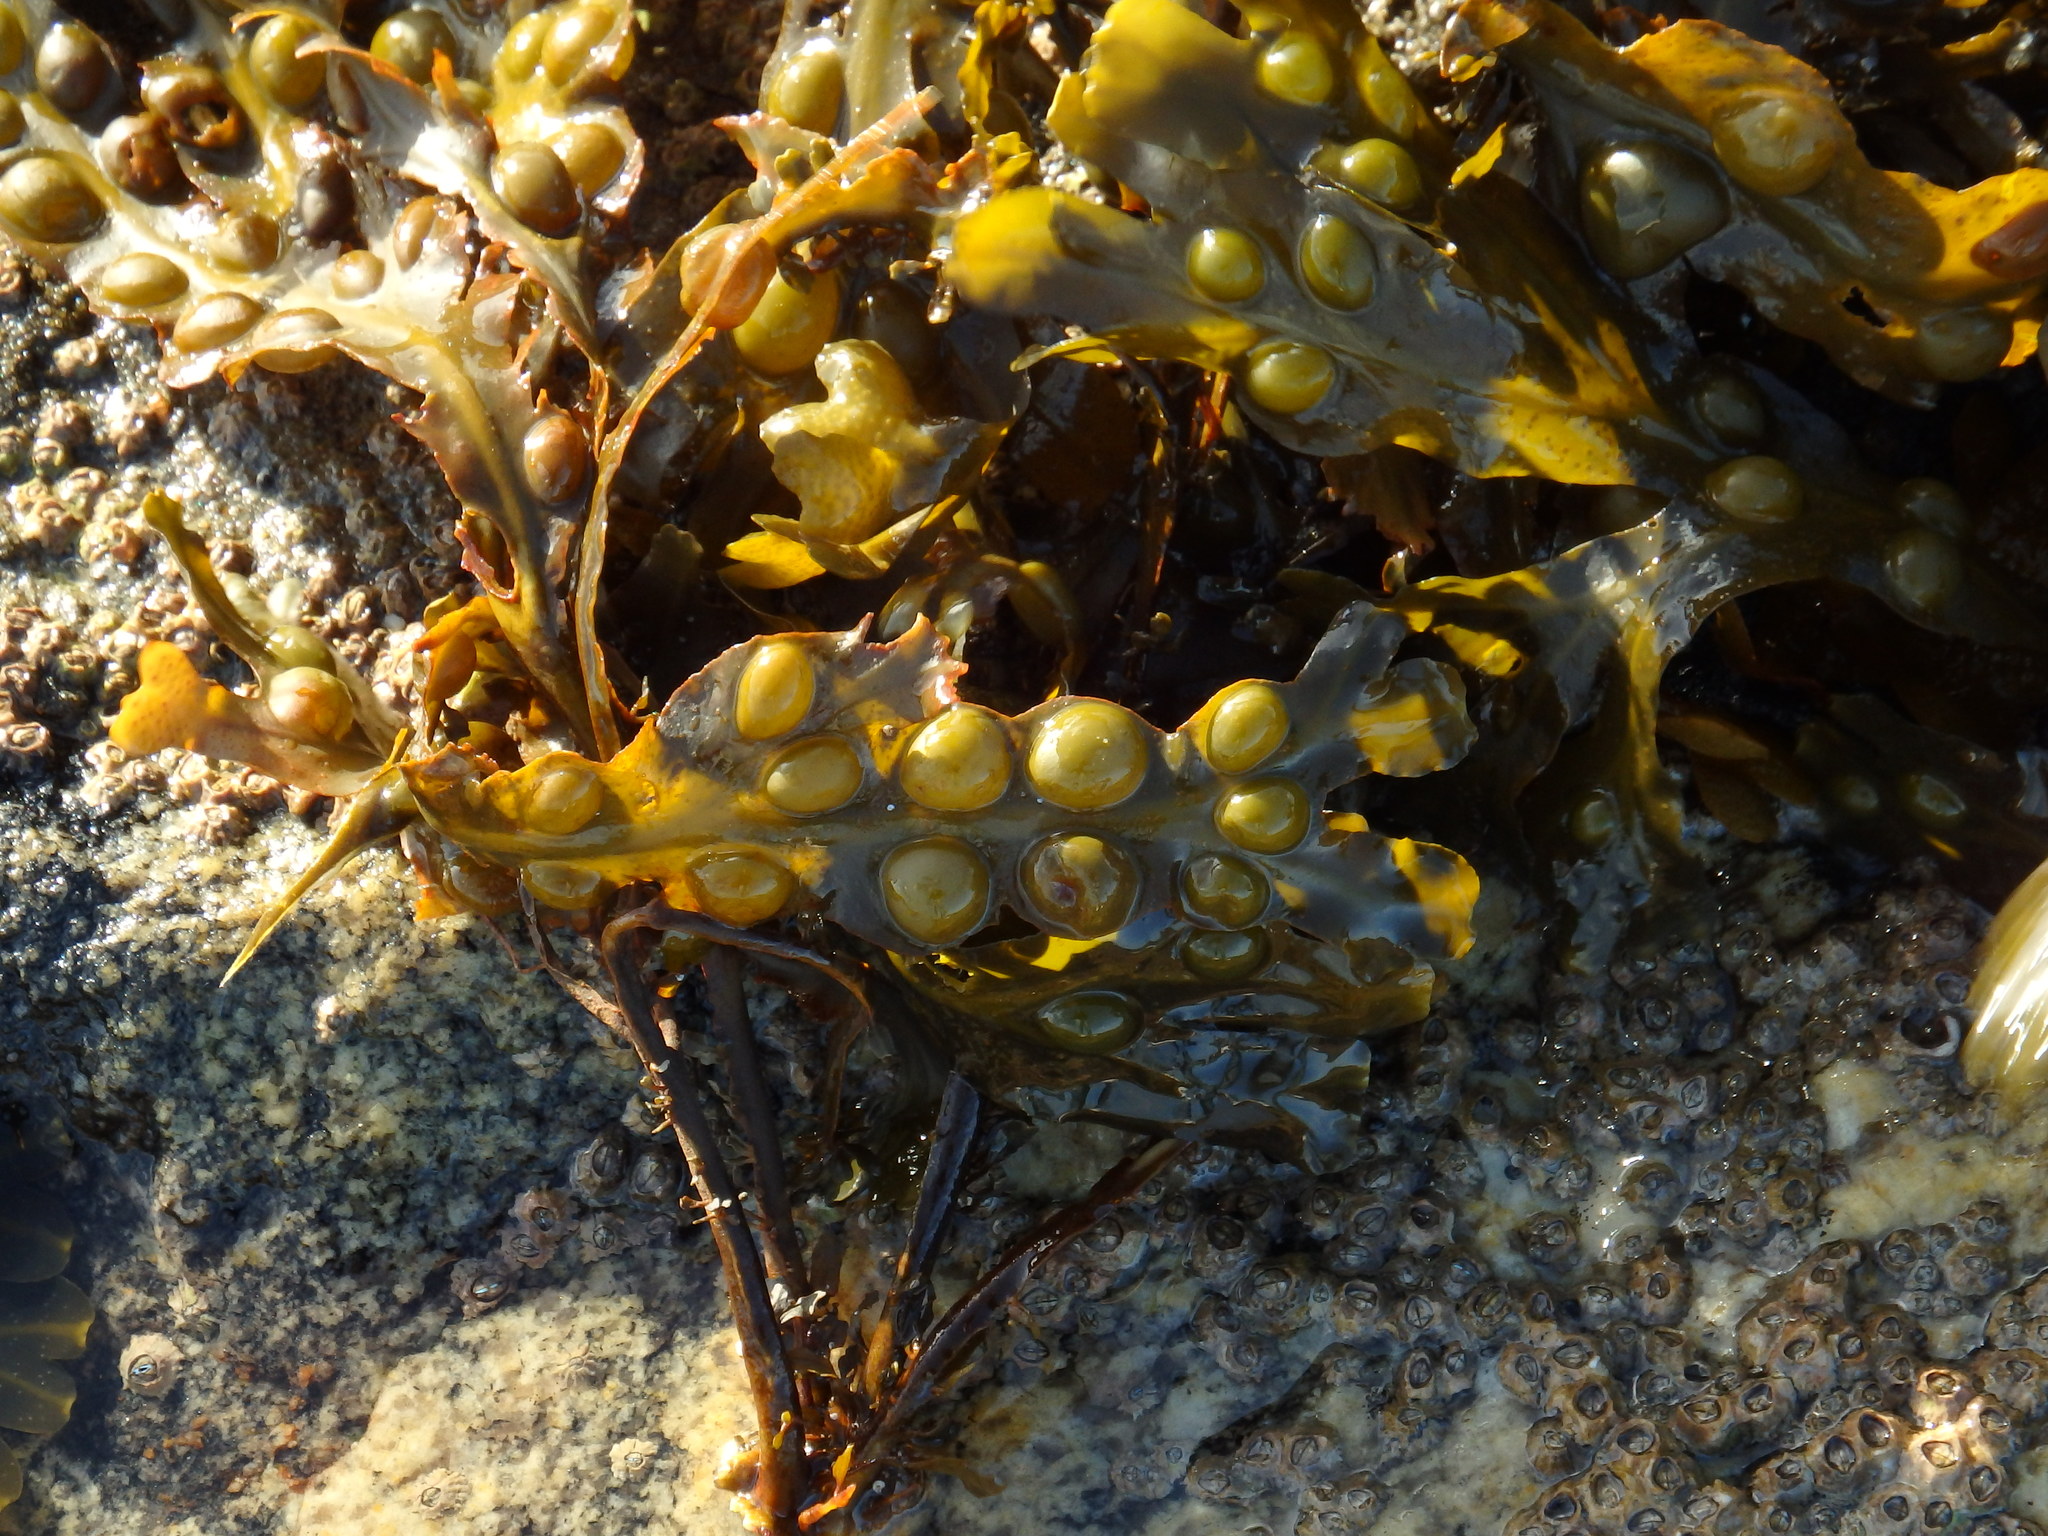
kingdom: Chromista
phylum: Ochrophyta
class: Phaeophyceae
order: Fucales
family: Fucaceae
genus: Fucus
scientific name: Fucus vesiculosus
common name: Bladder wrack
